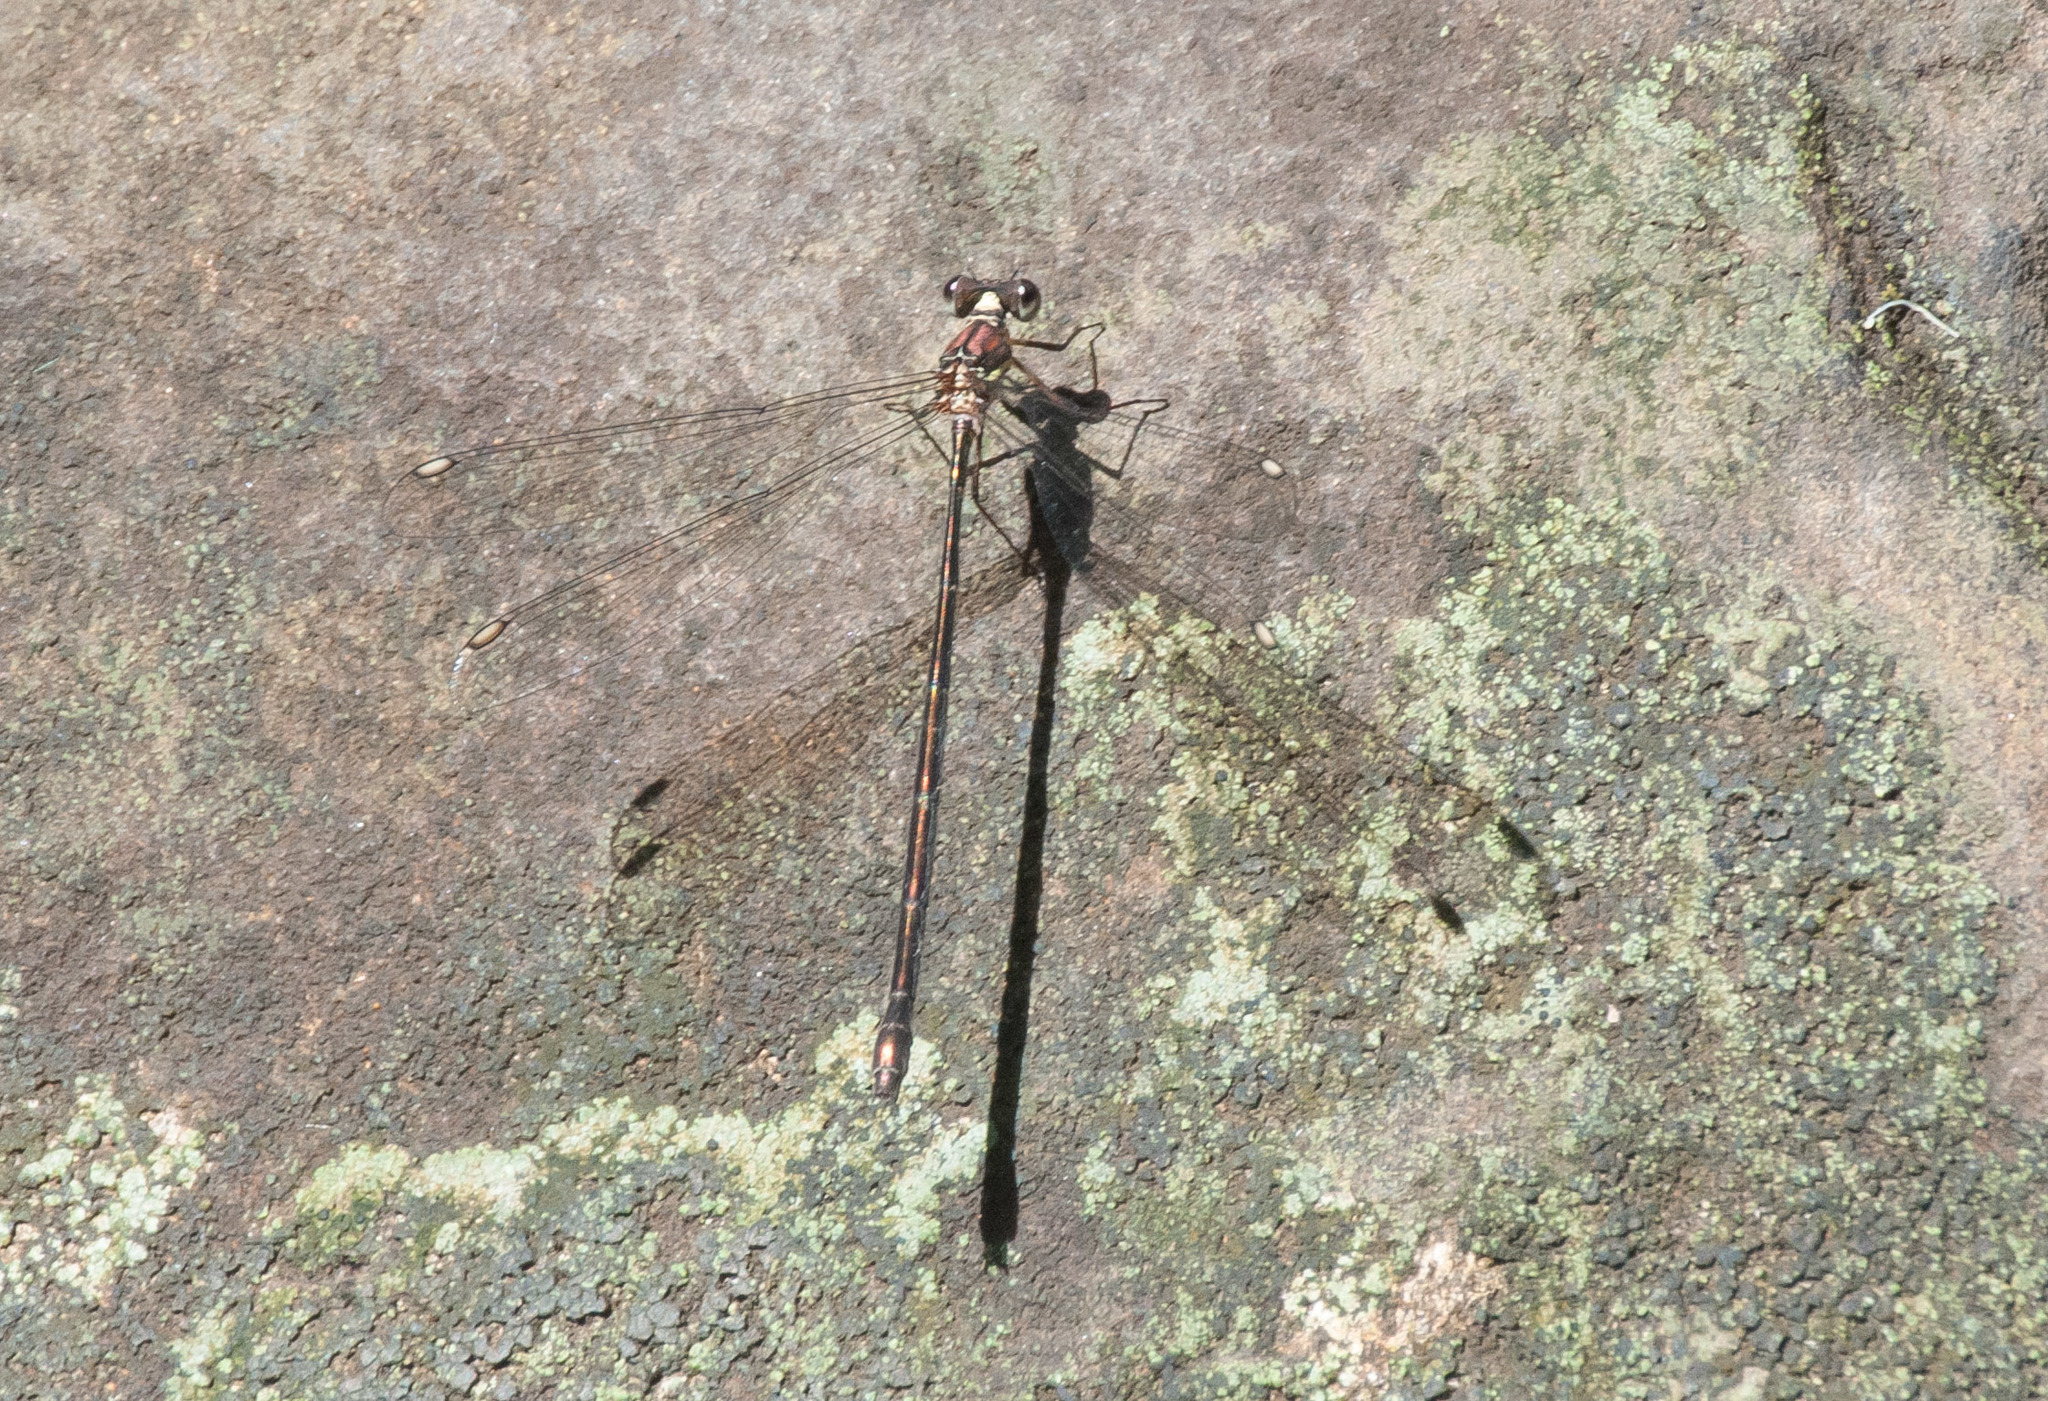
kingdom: Animalia
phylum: Arthropoda
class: Insecta
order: Odonata
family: Synlestidae
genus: Synlestes
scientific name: Synlestes weyersii
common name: Bronze needle
